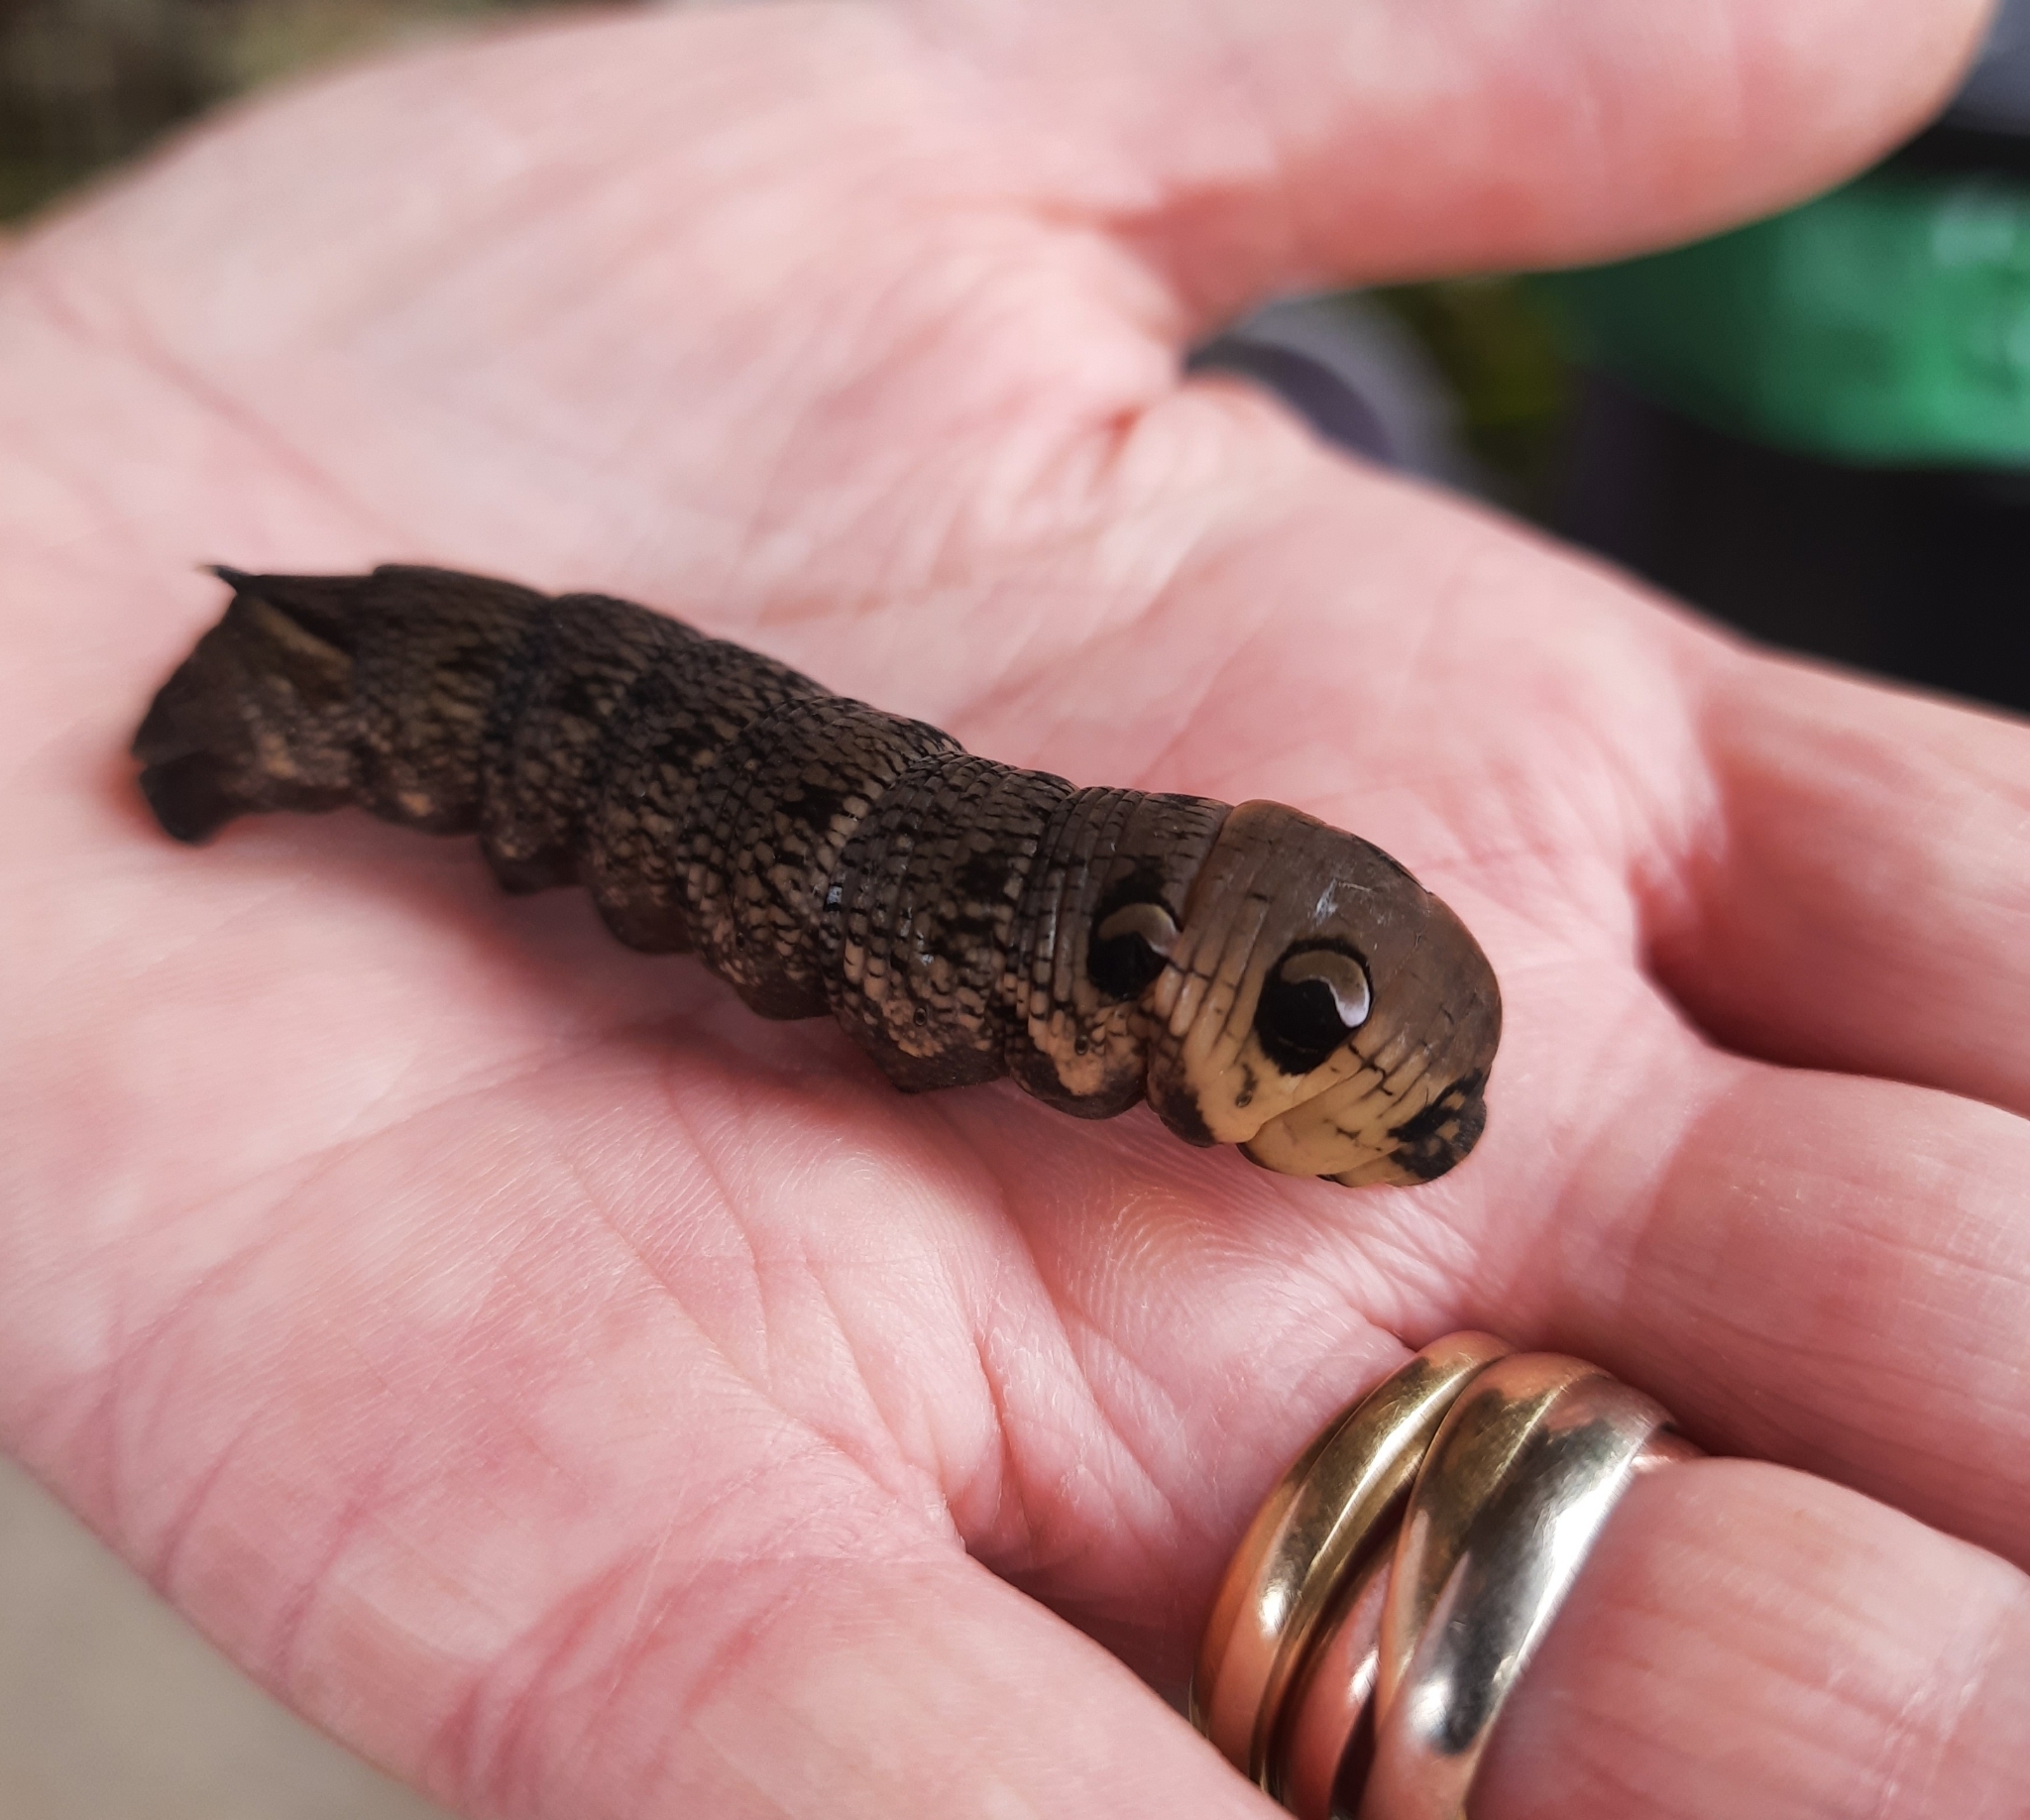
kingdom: Animalia
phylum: Arthropoda
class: Insecta
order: Lepidoptera
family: Sphingidae
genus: Deilephila
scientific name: Deilephila elpenor
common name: Elephant hawk-moth
